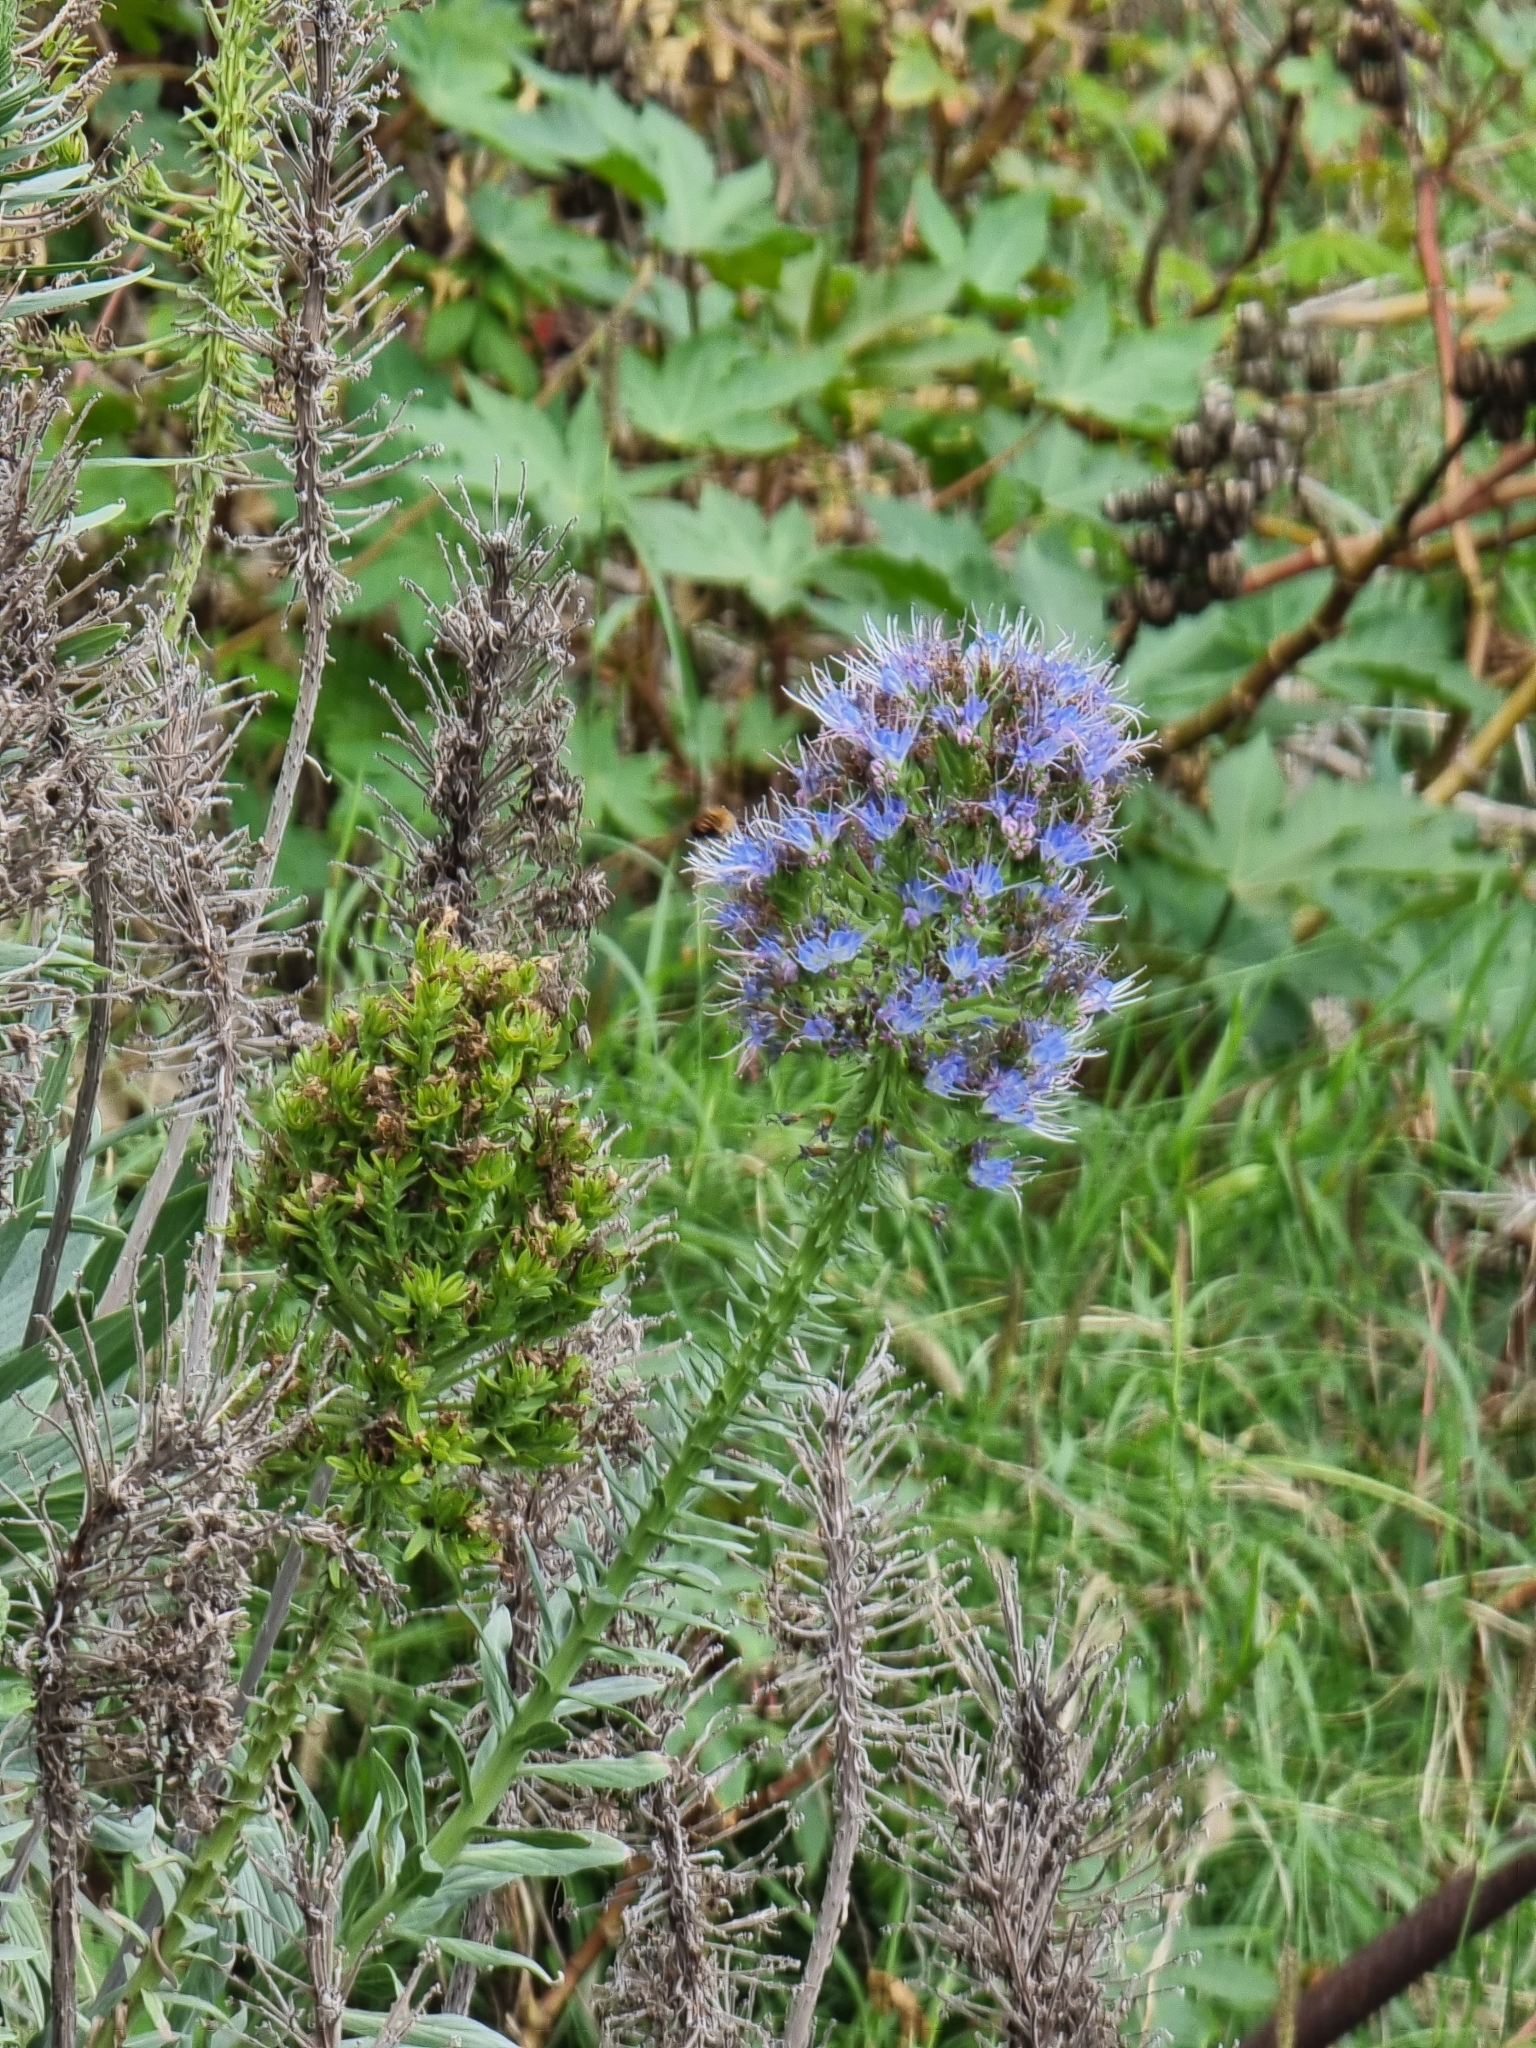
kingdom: Plantae
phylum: Tracheophyta
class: Magnoliopsida
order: Boraginales
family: Boraginaceae
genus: Echium
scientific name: Echium nervosum
